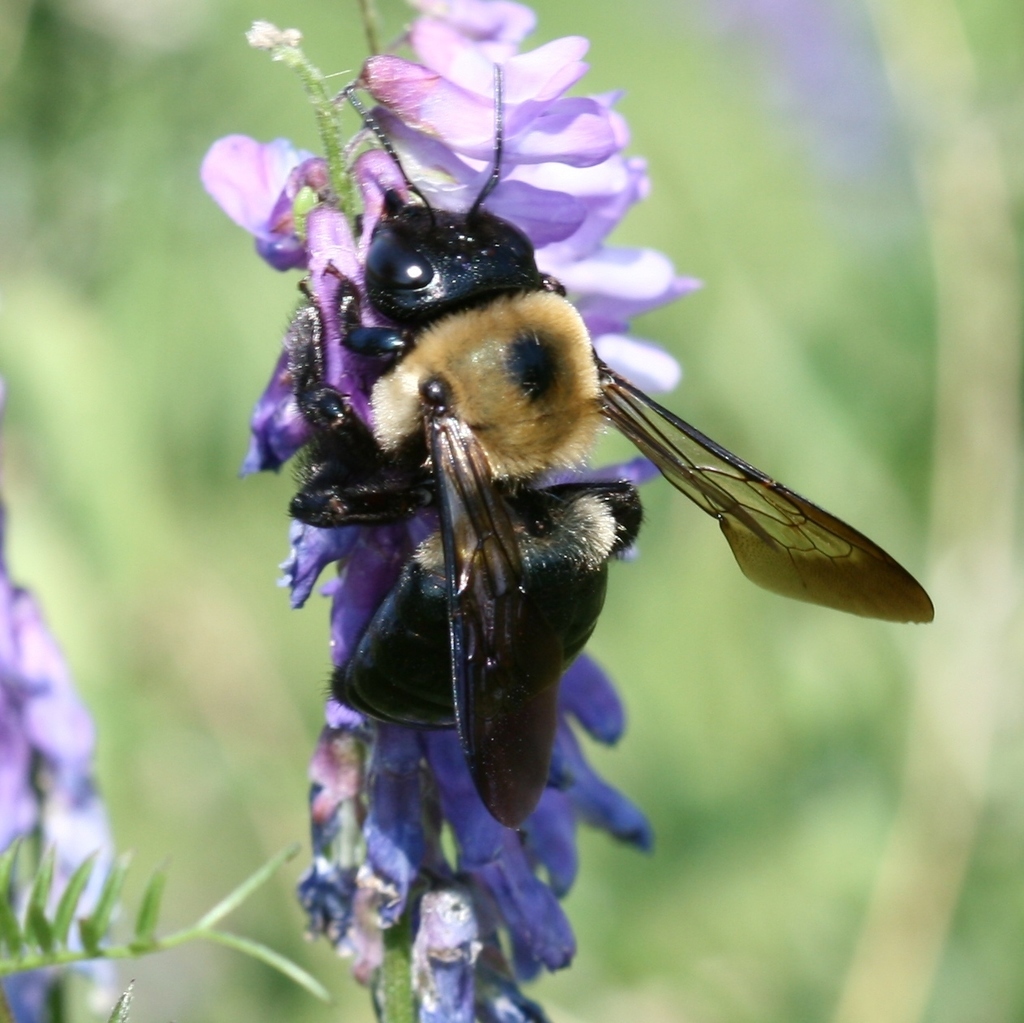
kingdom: Plantae
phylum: Tracheophyta
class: Magnoliopsida
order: Fabales
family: Fabaceae
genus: Vicia
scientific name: Vicia cracca
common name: Bird vetch
